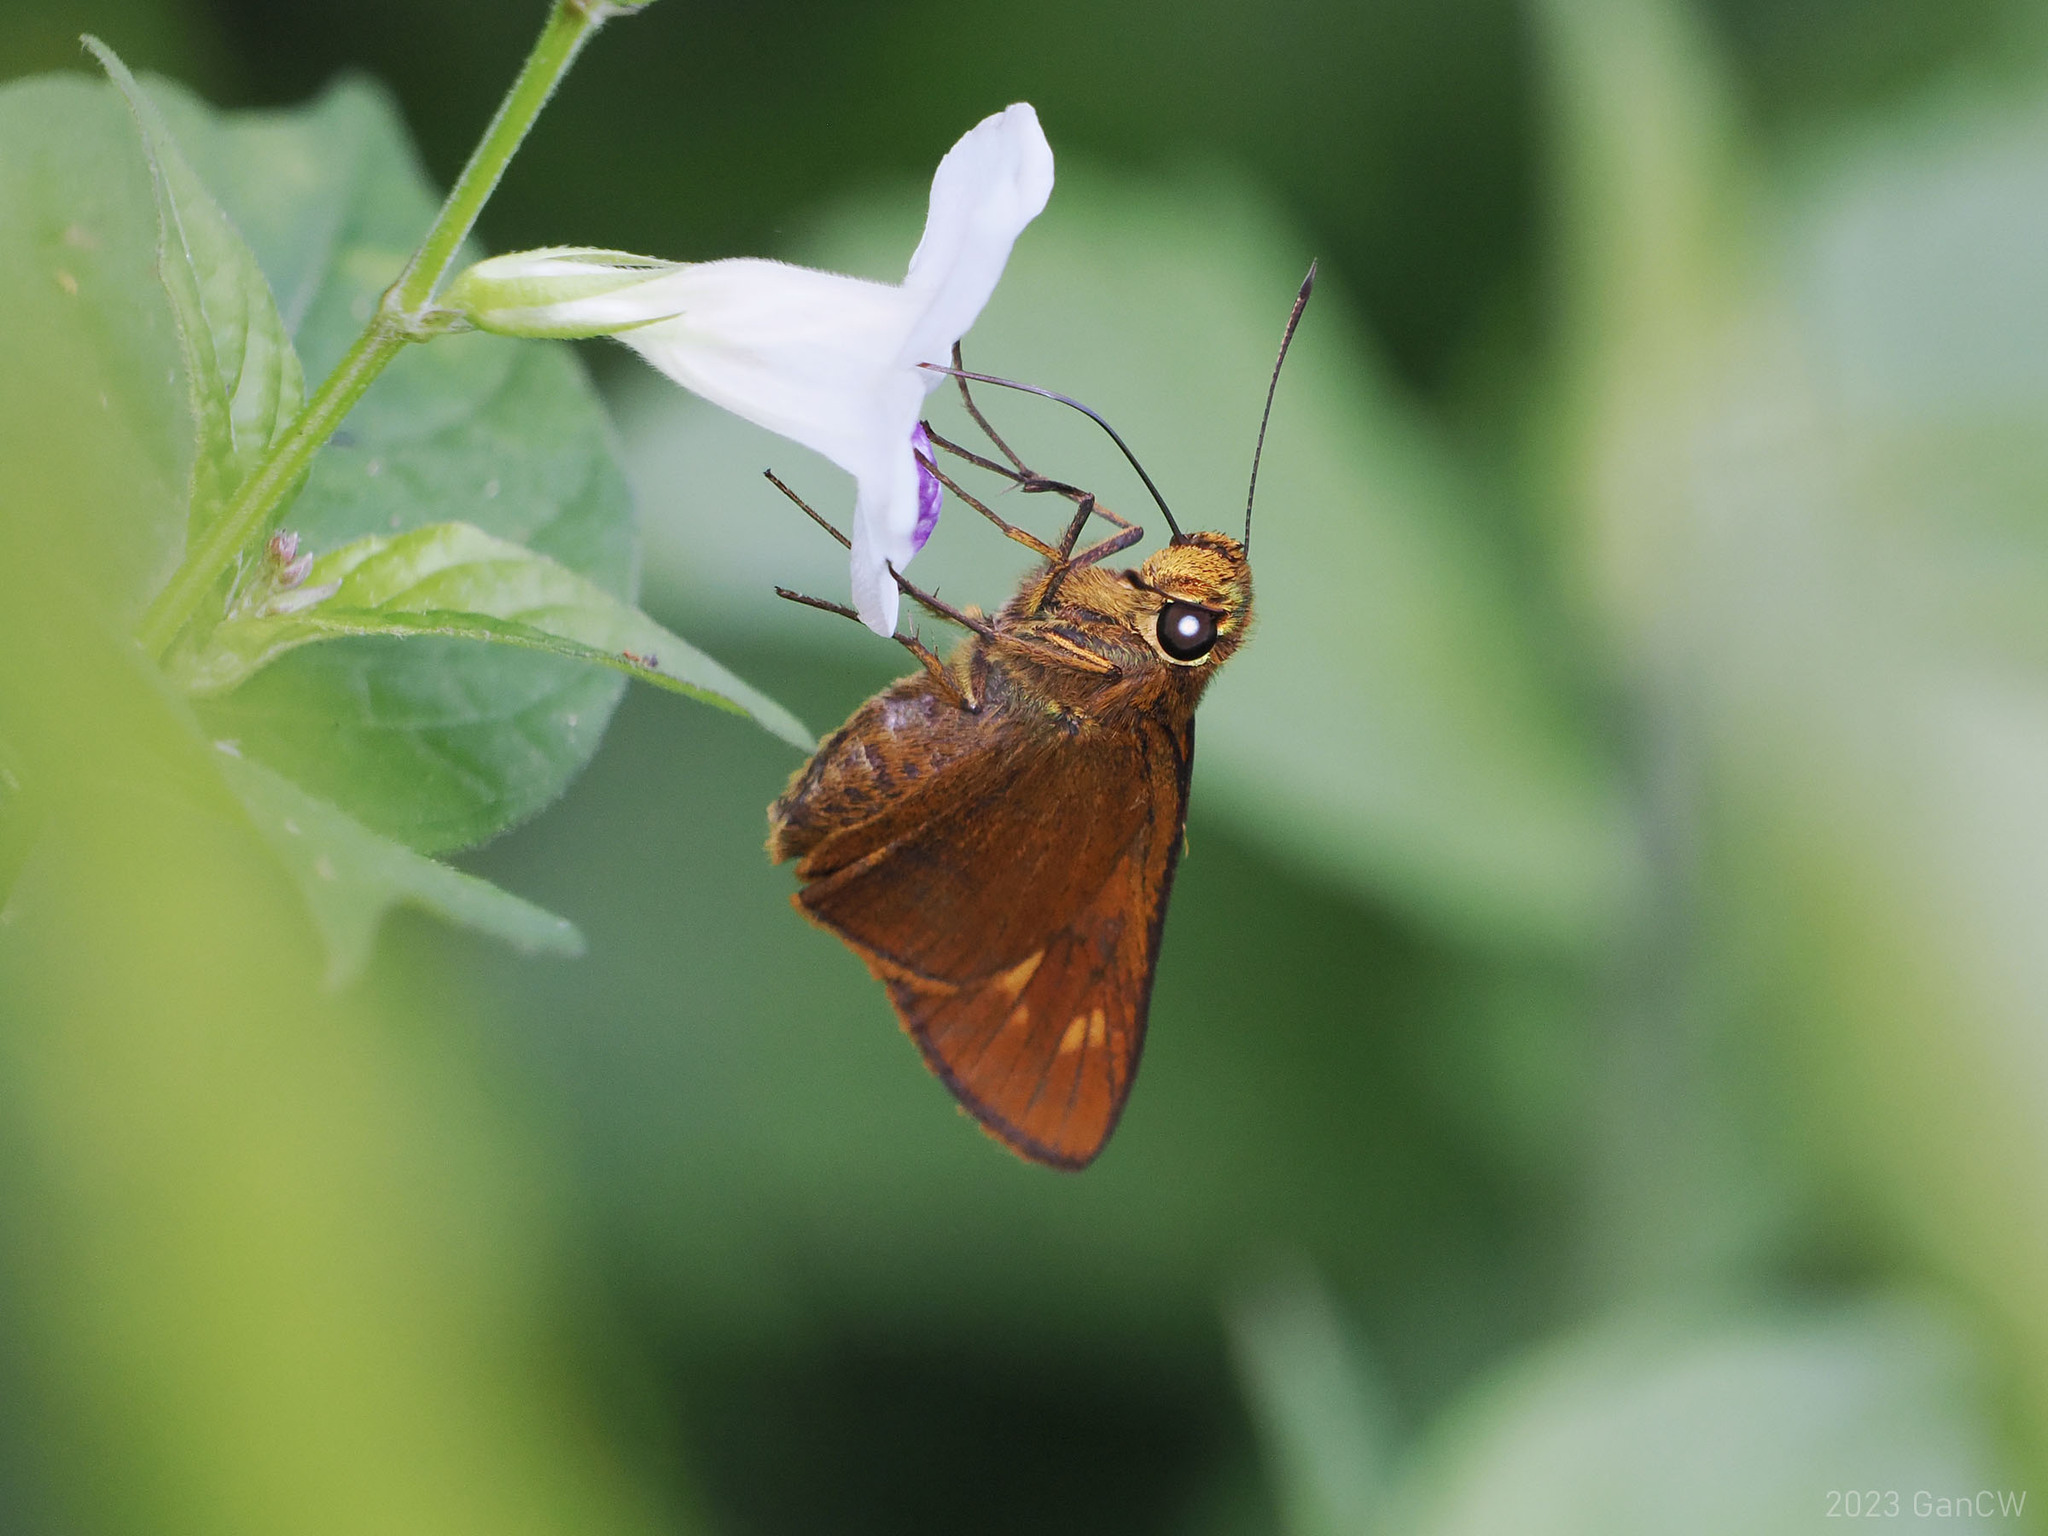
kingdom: Animalia
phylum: Arthropoda
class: Insecta
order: Lepidoptera
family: Hesperiidae
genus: Prusiana
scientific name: Prusiana prusias
